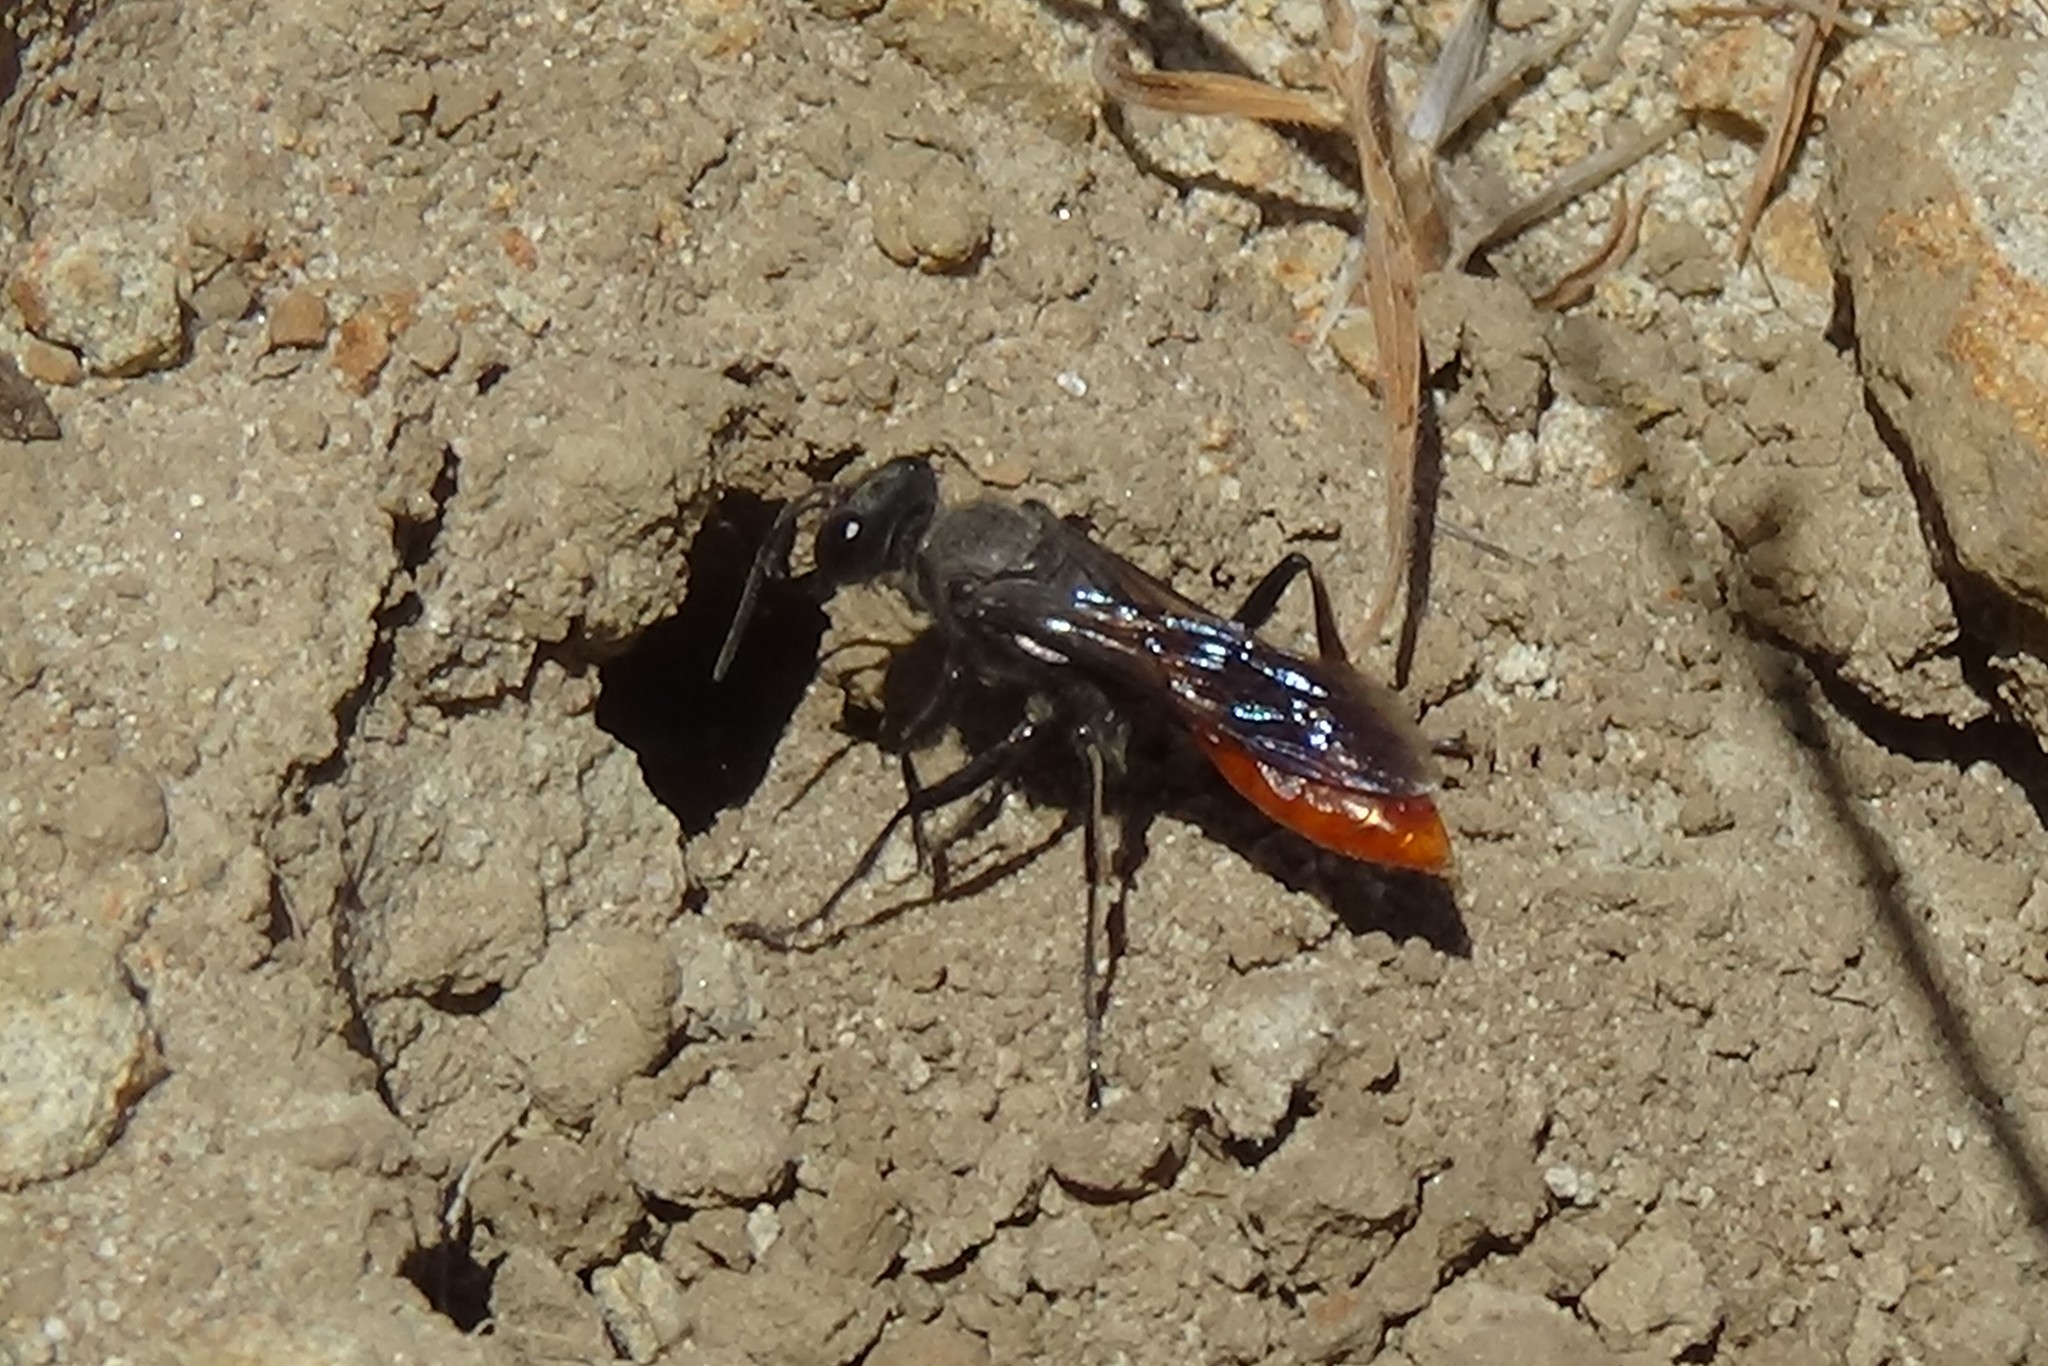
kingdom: Animalia
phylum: Arthropoda
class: Insecta
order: Hymenoptera
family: Sphecidae
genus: Sphex
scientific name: Sphex lucae
